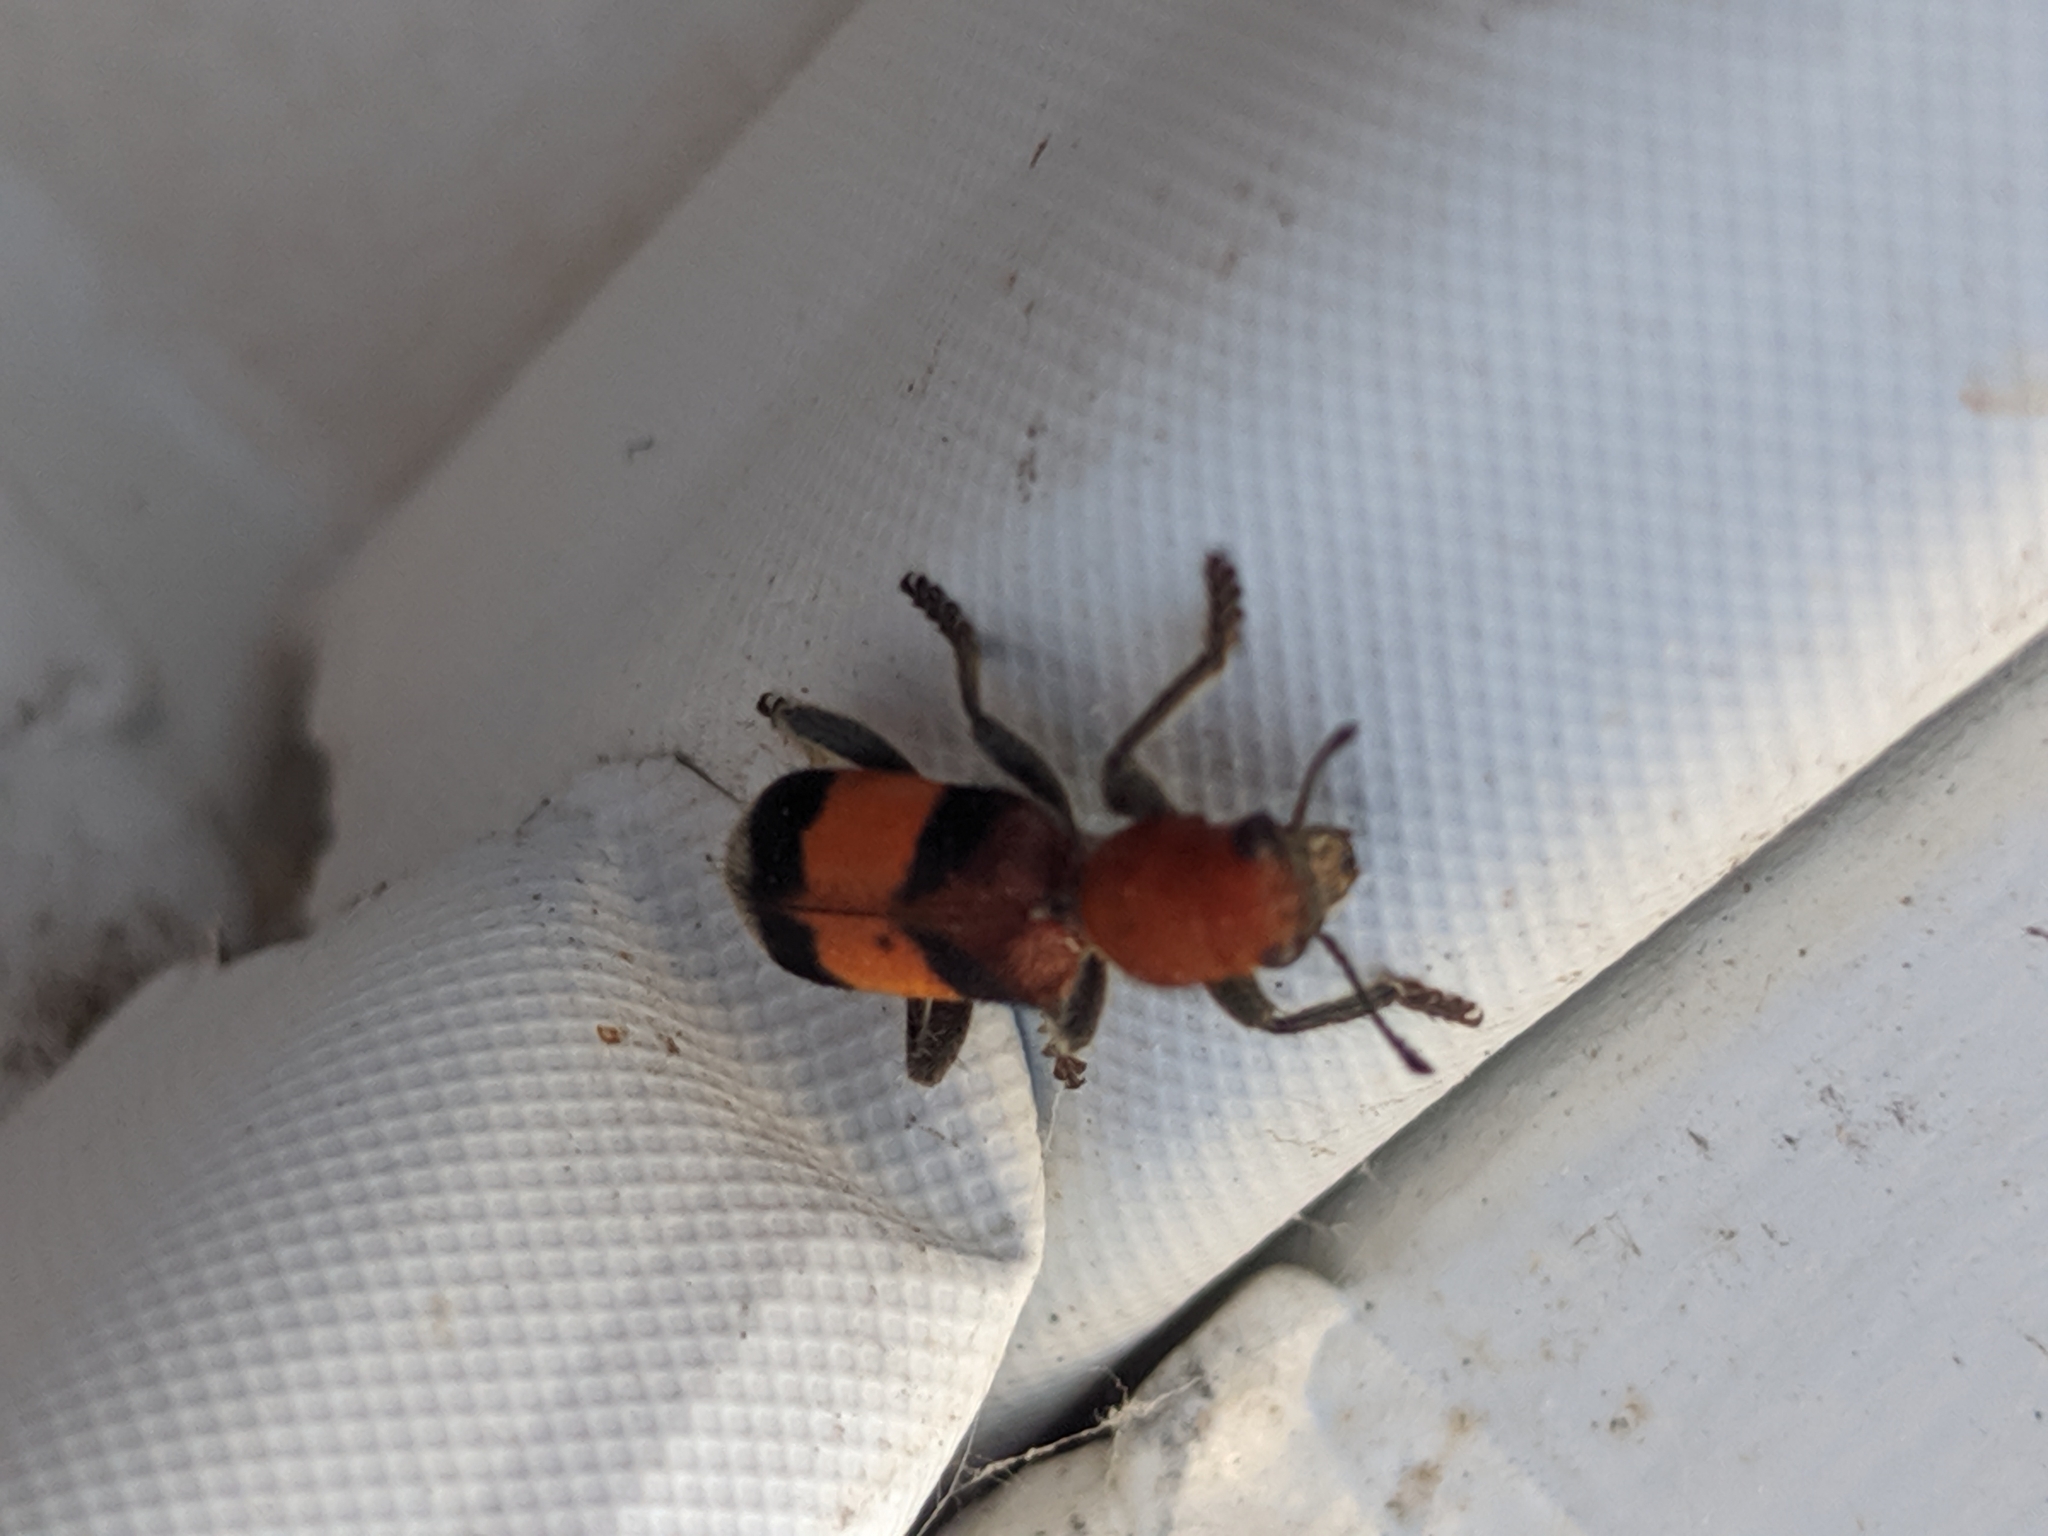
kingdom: Animalia
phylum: Arthropoda
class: Insecta
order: Coleoptera
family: Cleridae
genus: Enoclerus
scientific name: Enoclerus ichneumoneus
